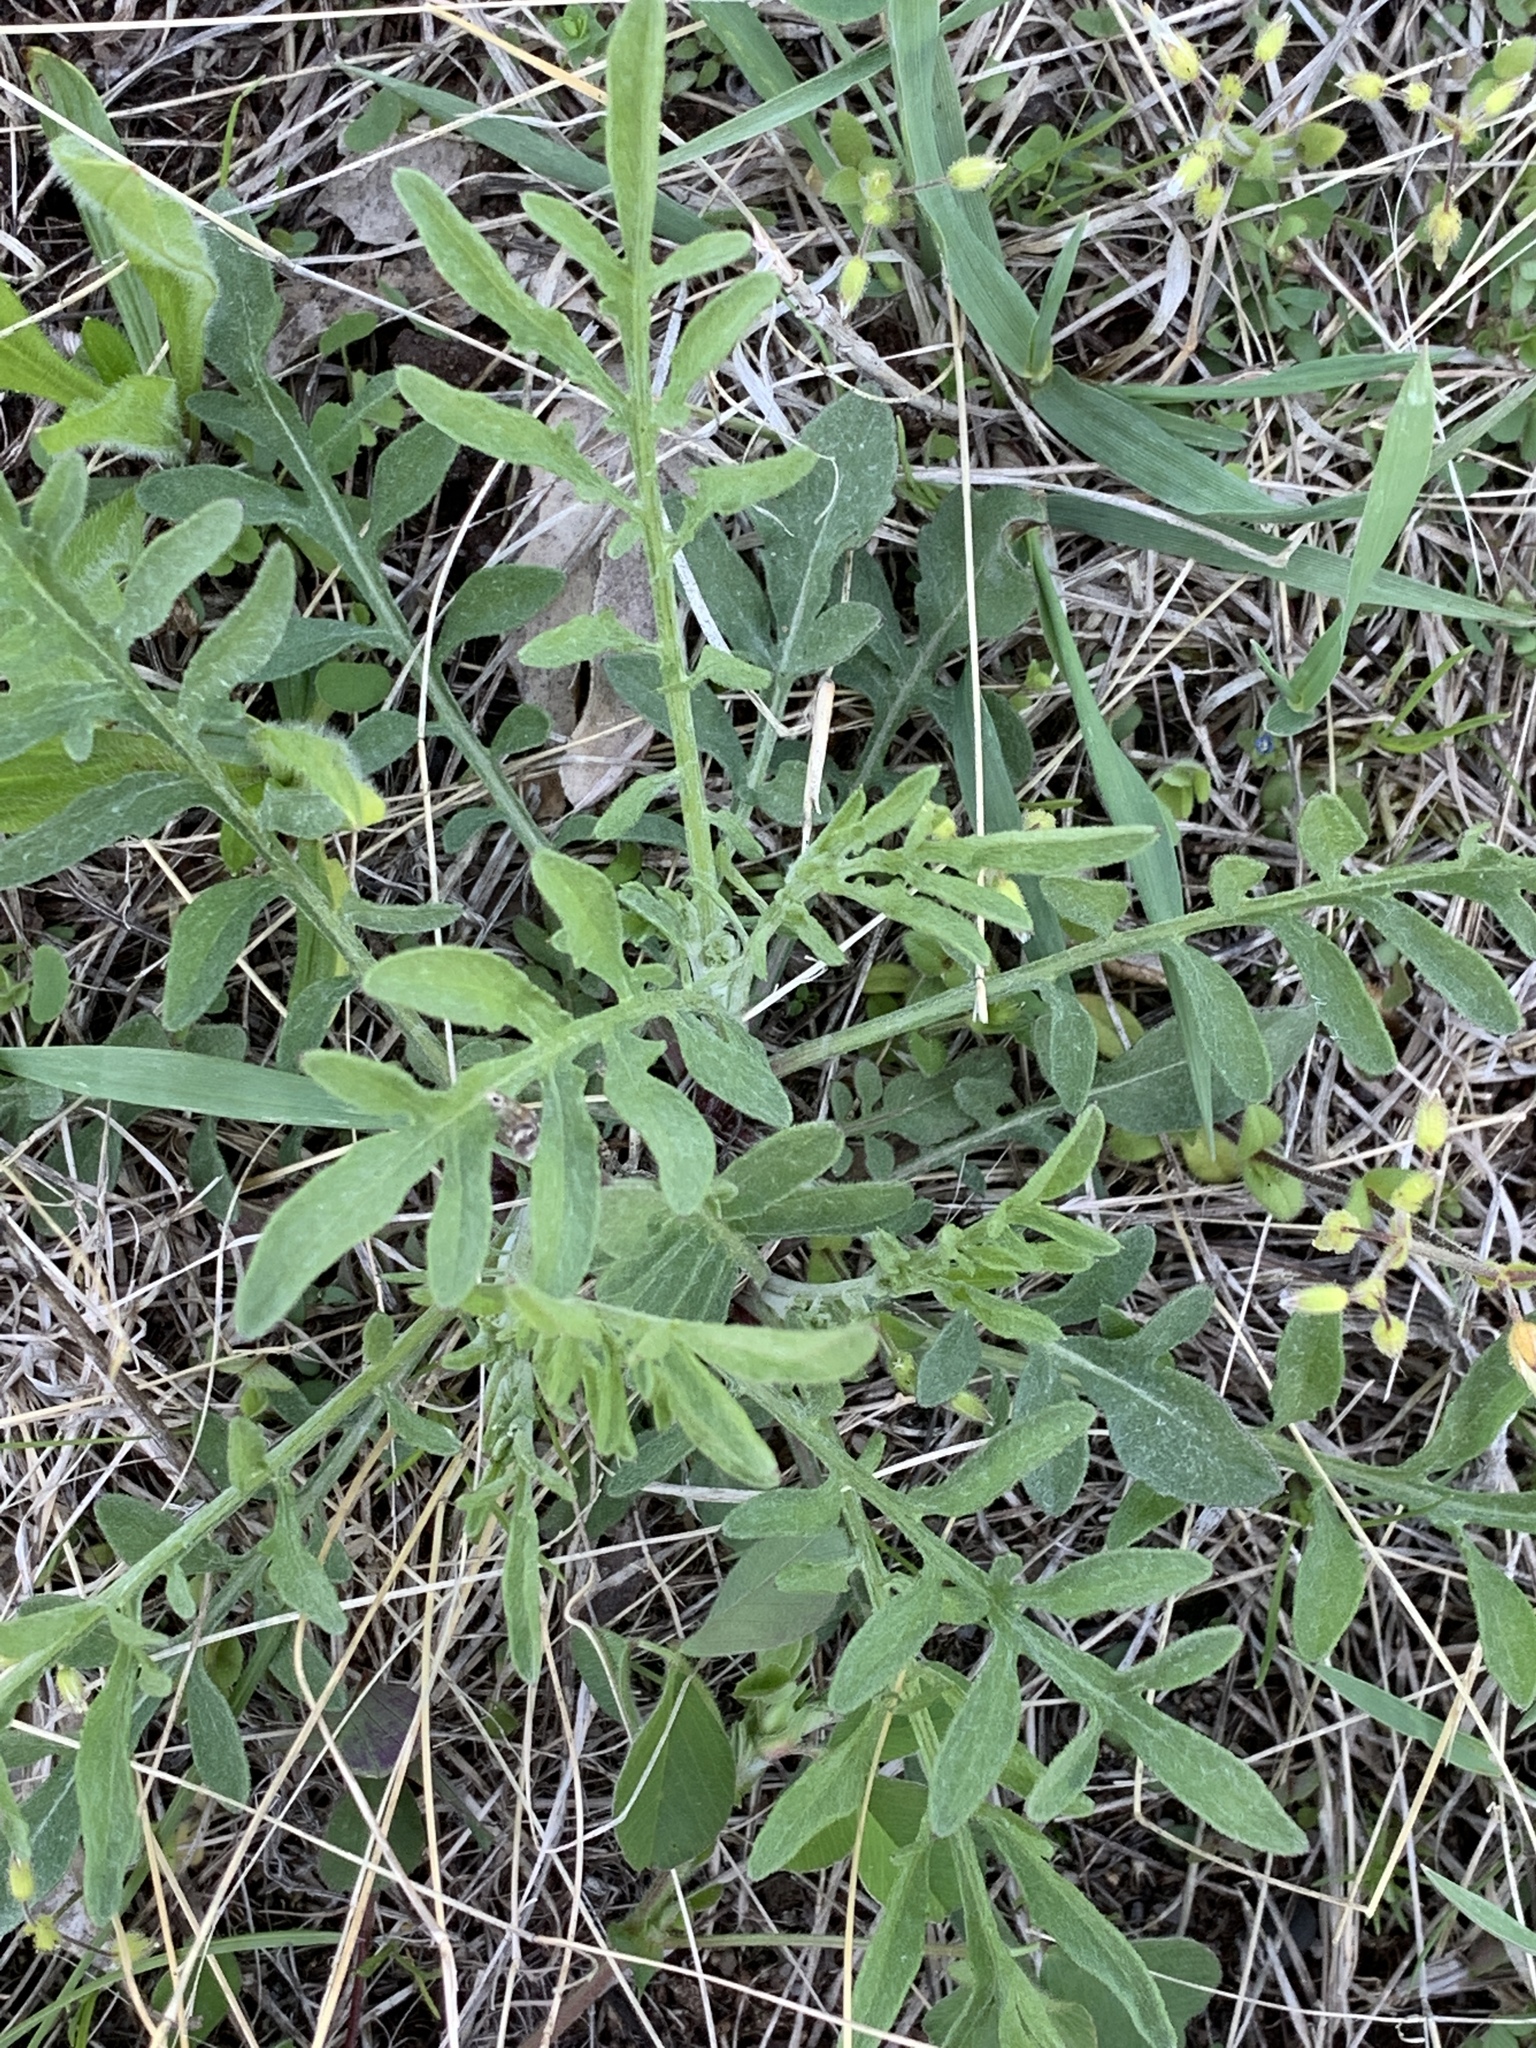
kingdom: Plantae
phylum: Tracheophyta
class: Magnoliopsida
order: Asterales
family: Asteraceae
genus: Centaurea
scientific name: Centaurea stoebe
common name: Spotted knapweed
